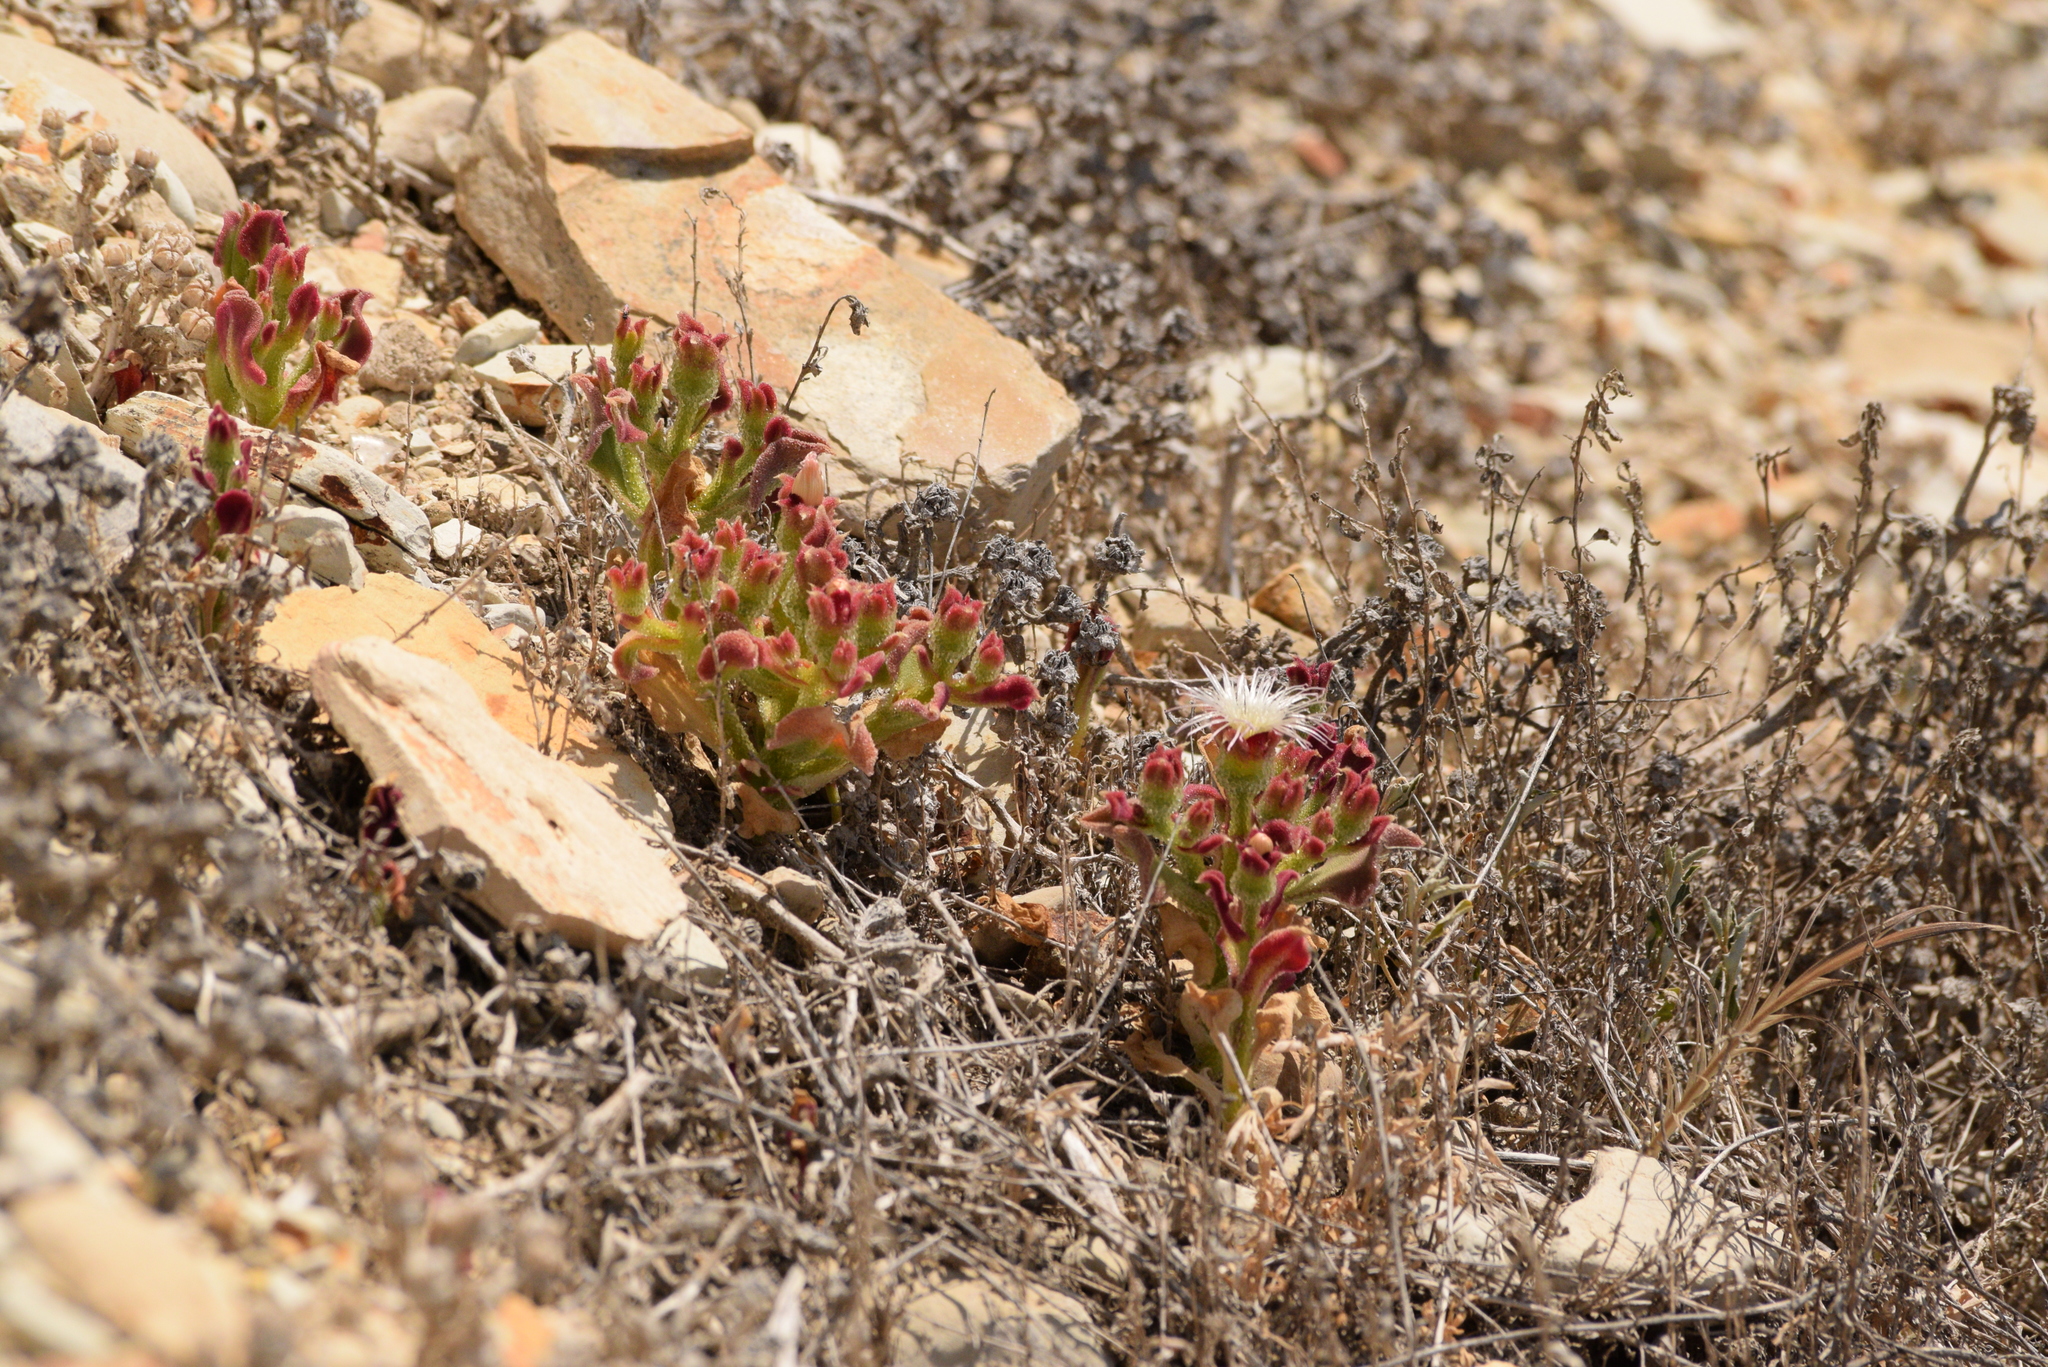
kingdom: Plantae
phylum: Tracheophyta
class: Magnoliopsida
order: Caryophyllales
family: Aizoaceae
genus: Mesembryanthemum
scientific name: Mesembryanthemum crystallinum
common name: Common iceplant
